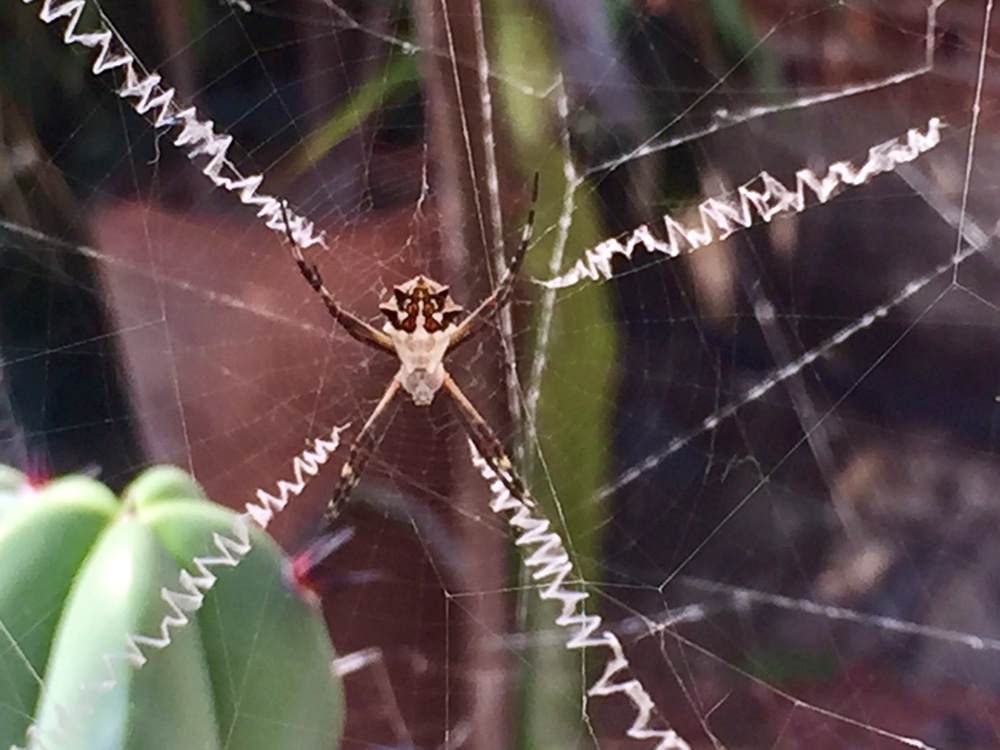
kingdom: Animalia
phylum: Arthropoda
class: Arachnida
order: Araneae
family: Araneidae
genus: Argiope
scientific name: Argiope argentata
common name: Orb weavers
